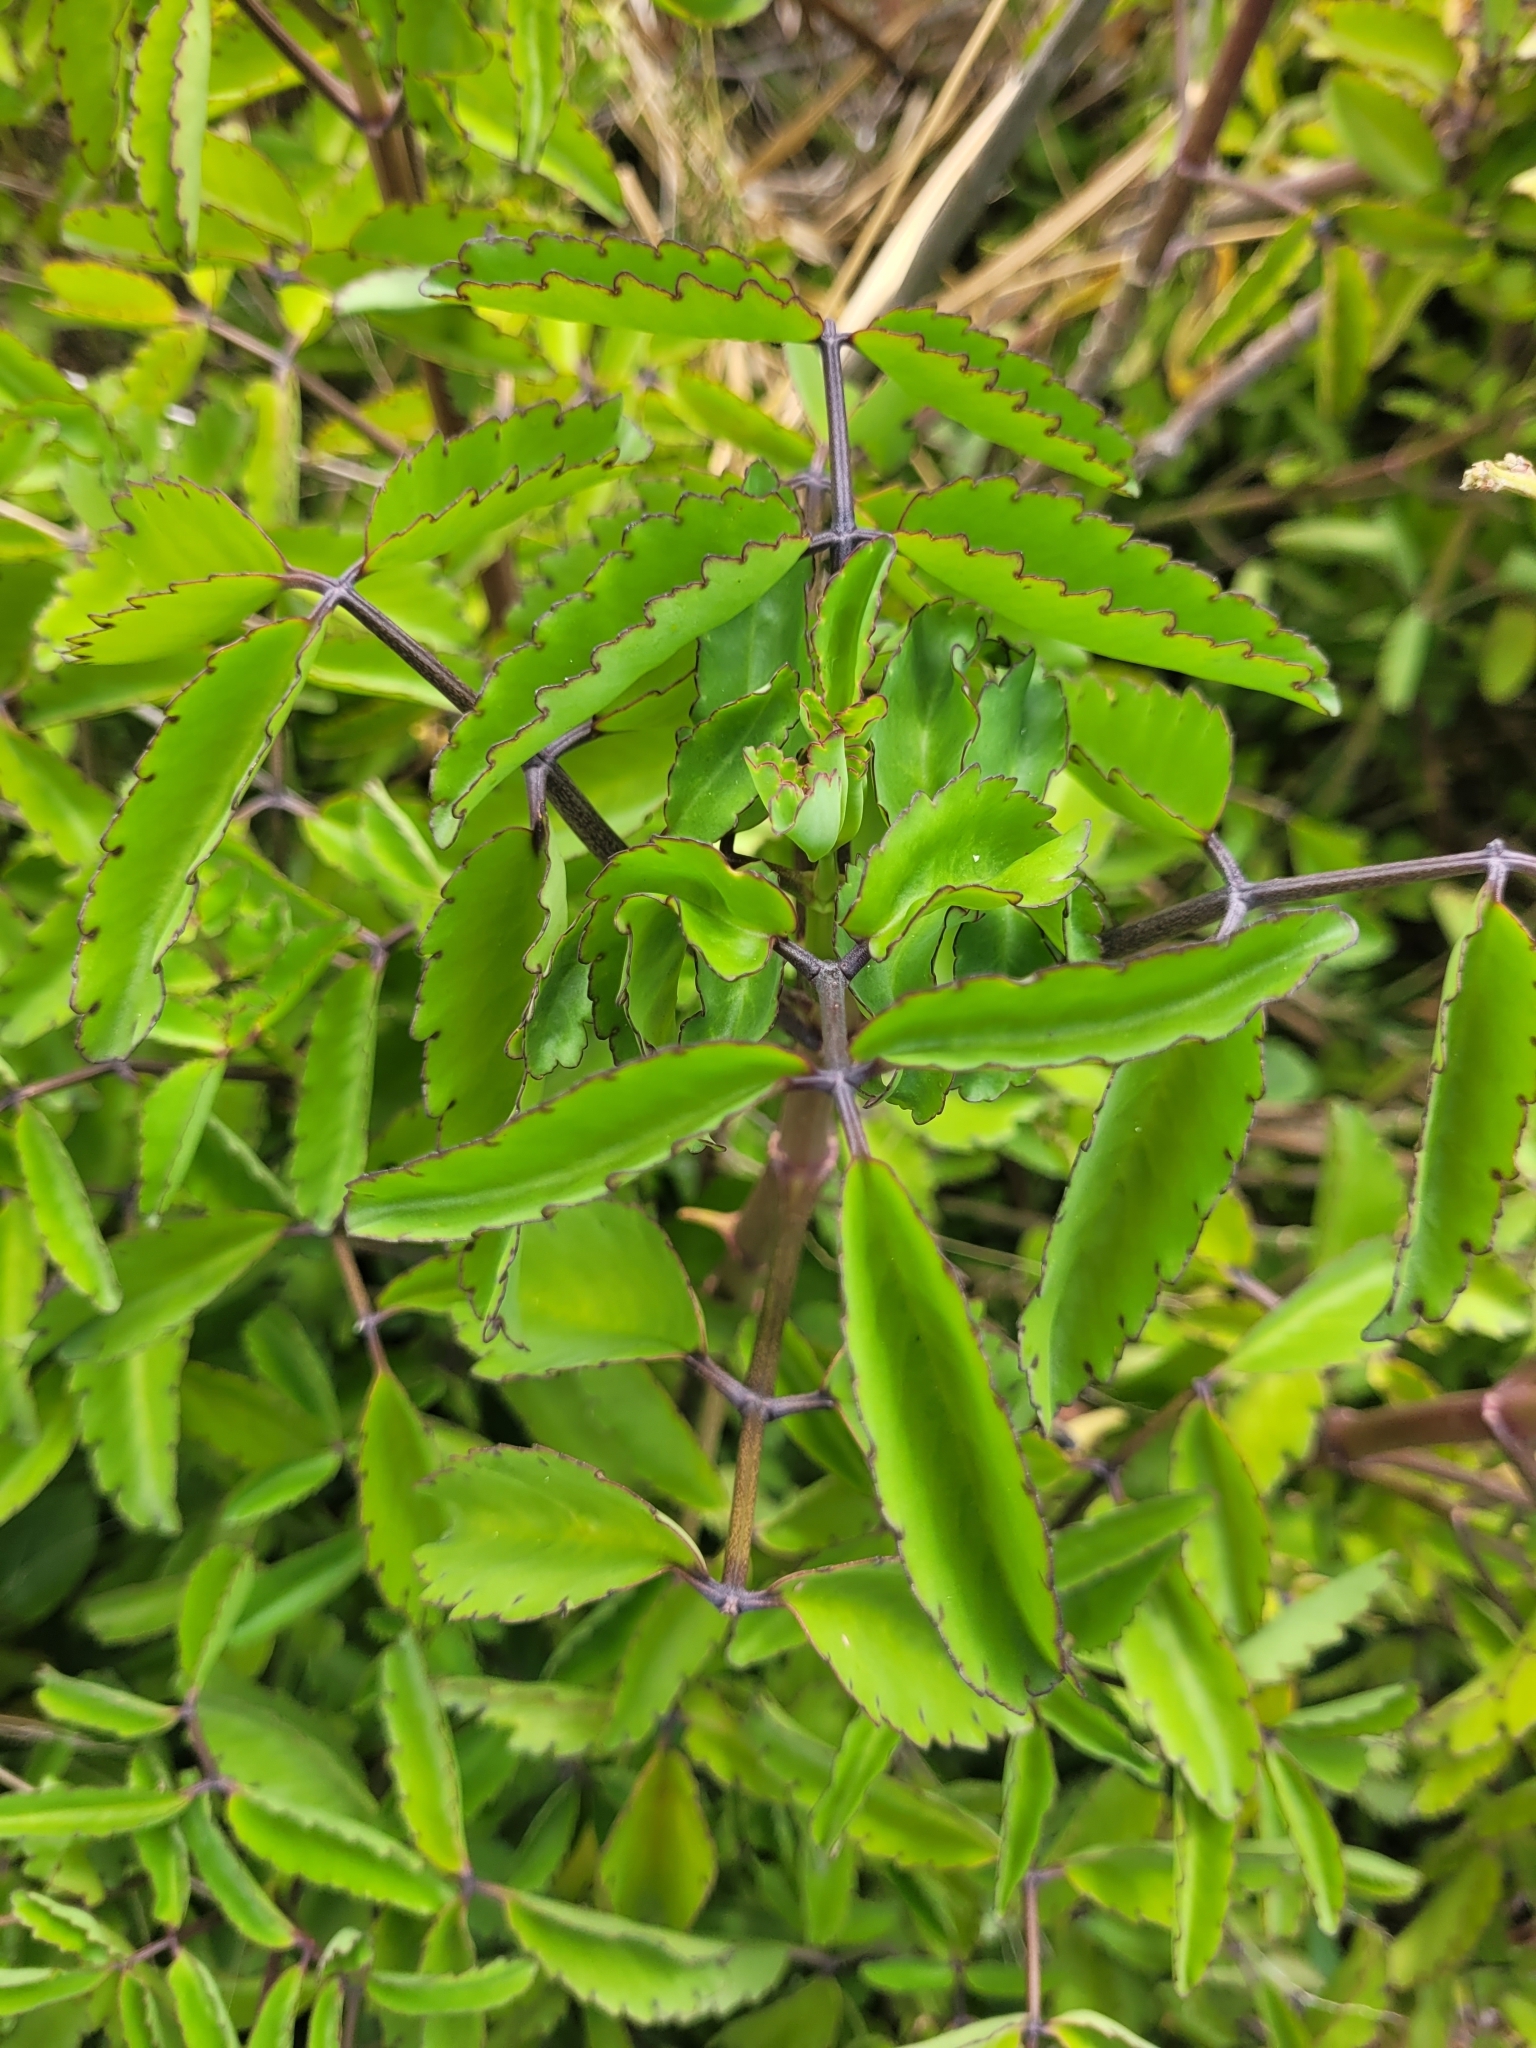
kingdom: Plantae
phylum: Tracheophyta
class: Magnoliopsida
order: Saxifragales
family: Crassulaceae
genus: Kalanchoe
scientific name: Kalanchoe pinnata
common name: Cathedral bells
